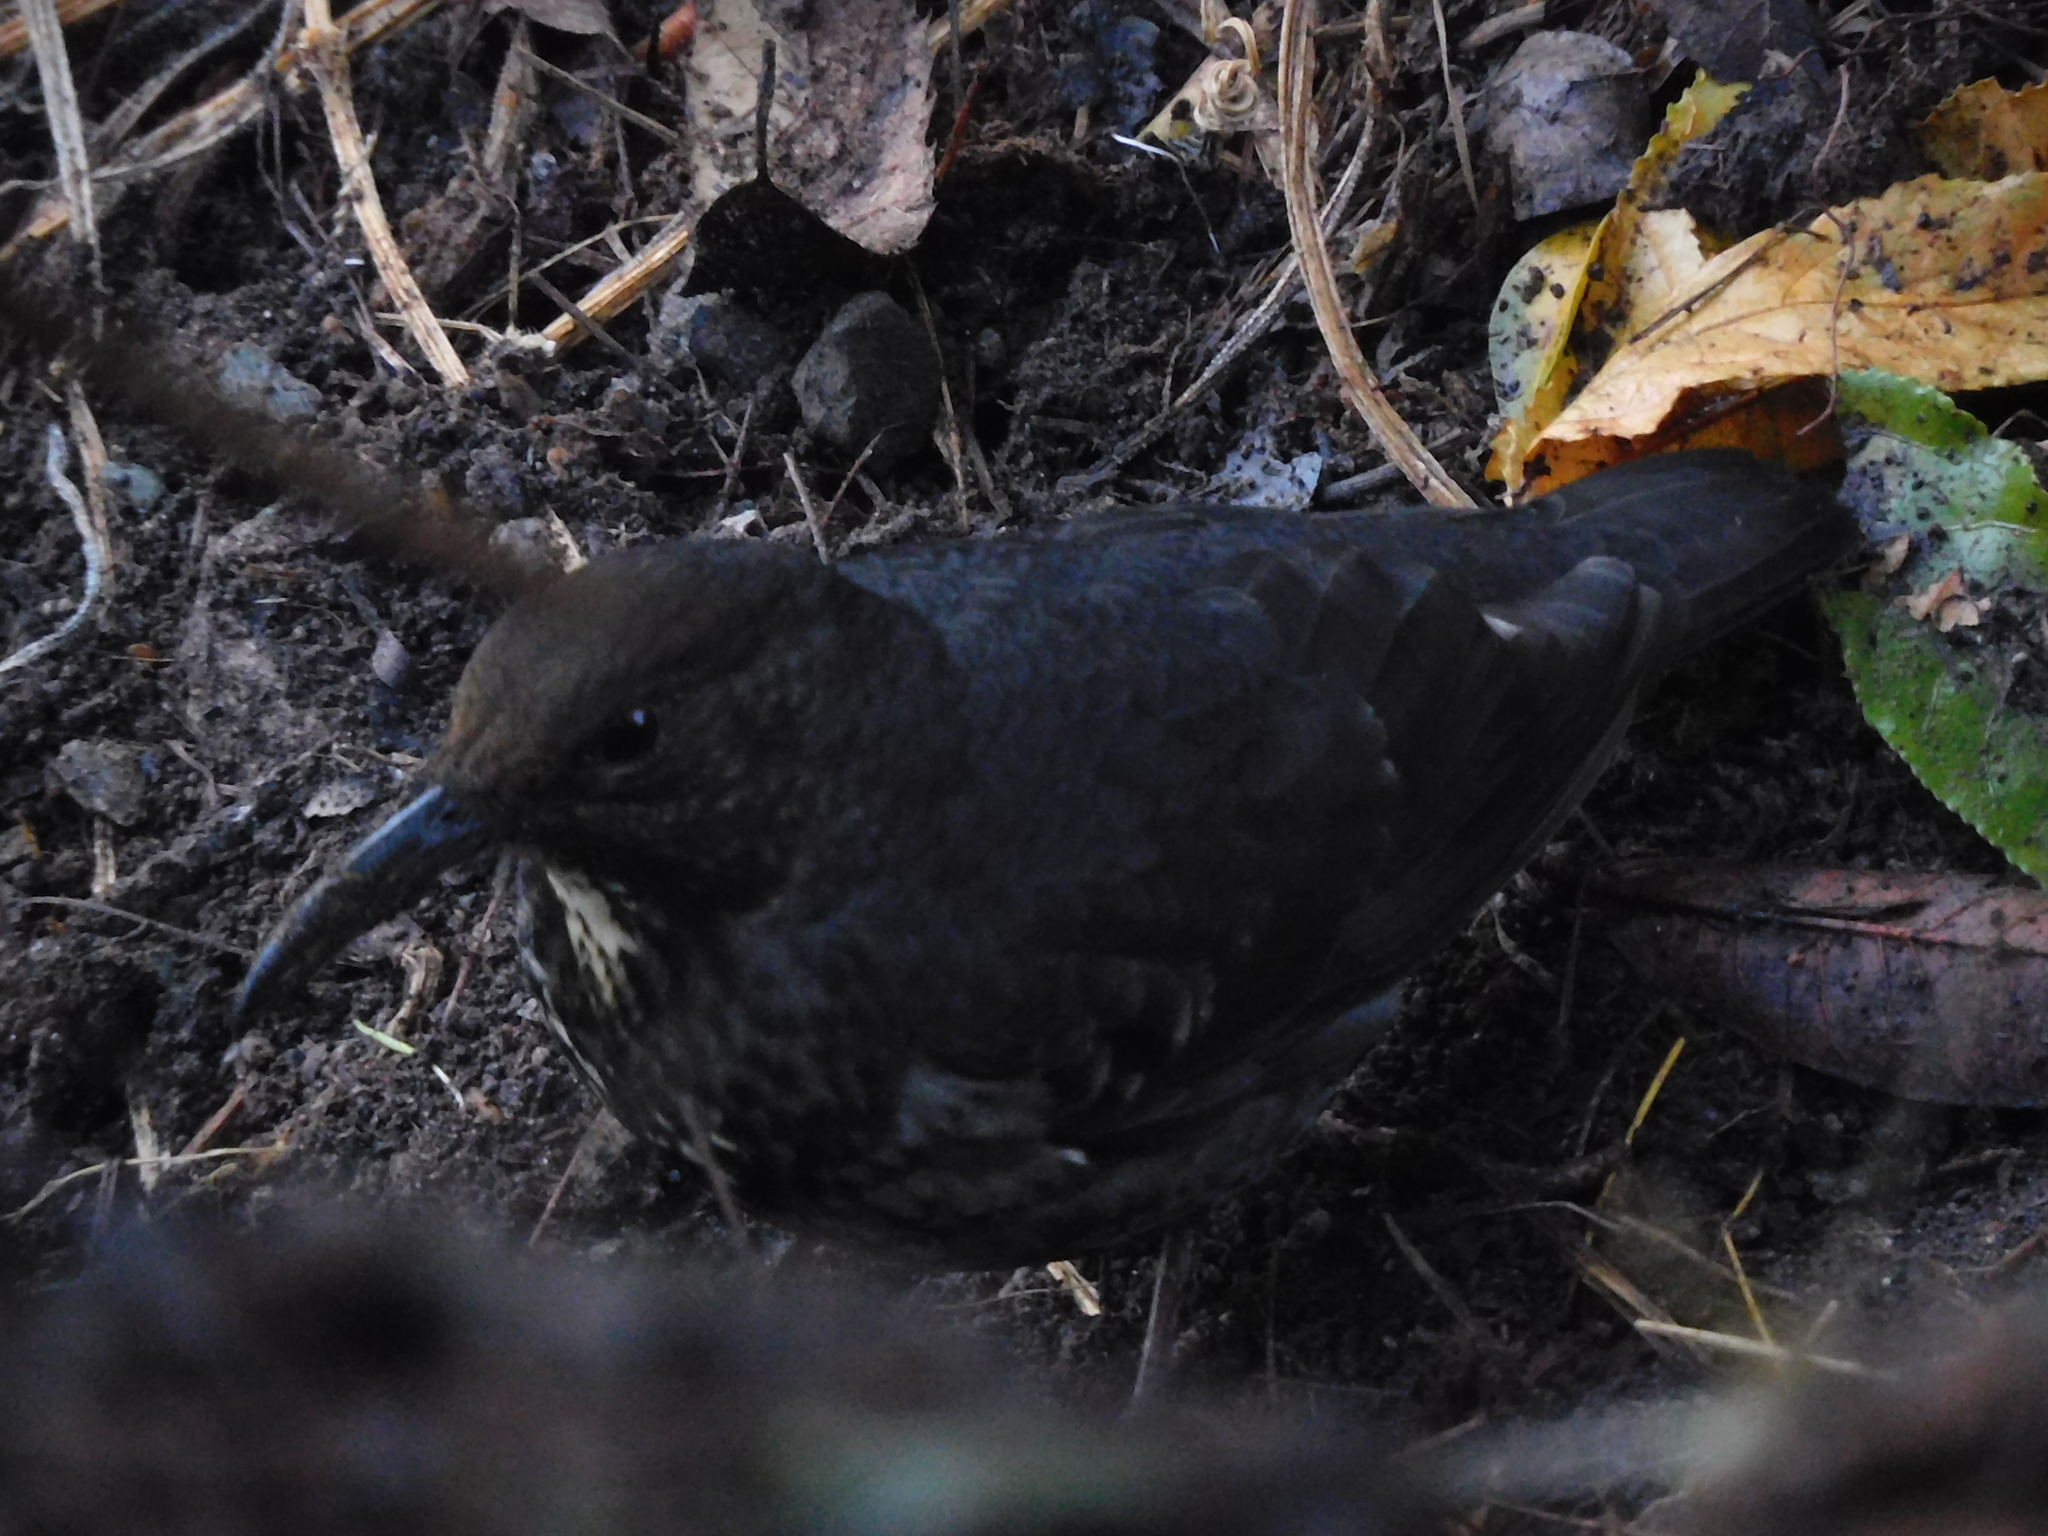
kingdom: Animalia
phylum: Chordata
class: Aves
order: Passeriformes
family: Turdidae
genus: Zoothera
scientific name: Zoothera monticola
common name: Long-billed thrush
